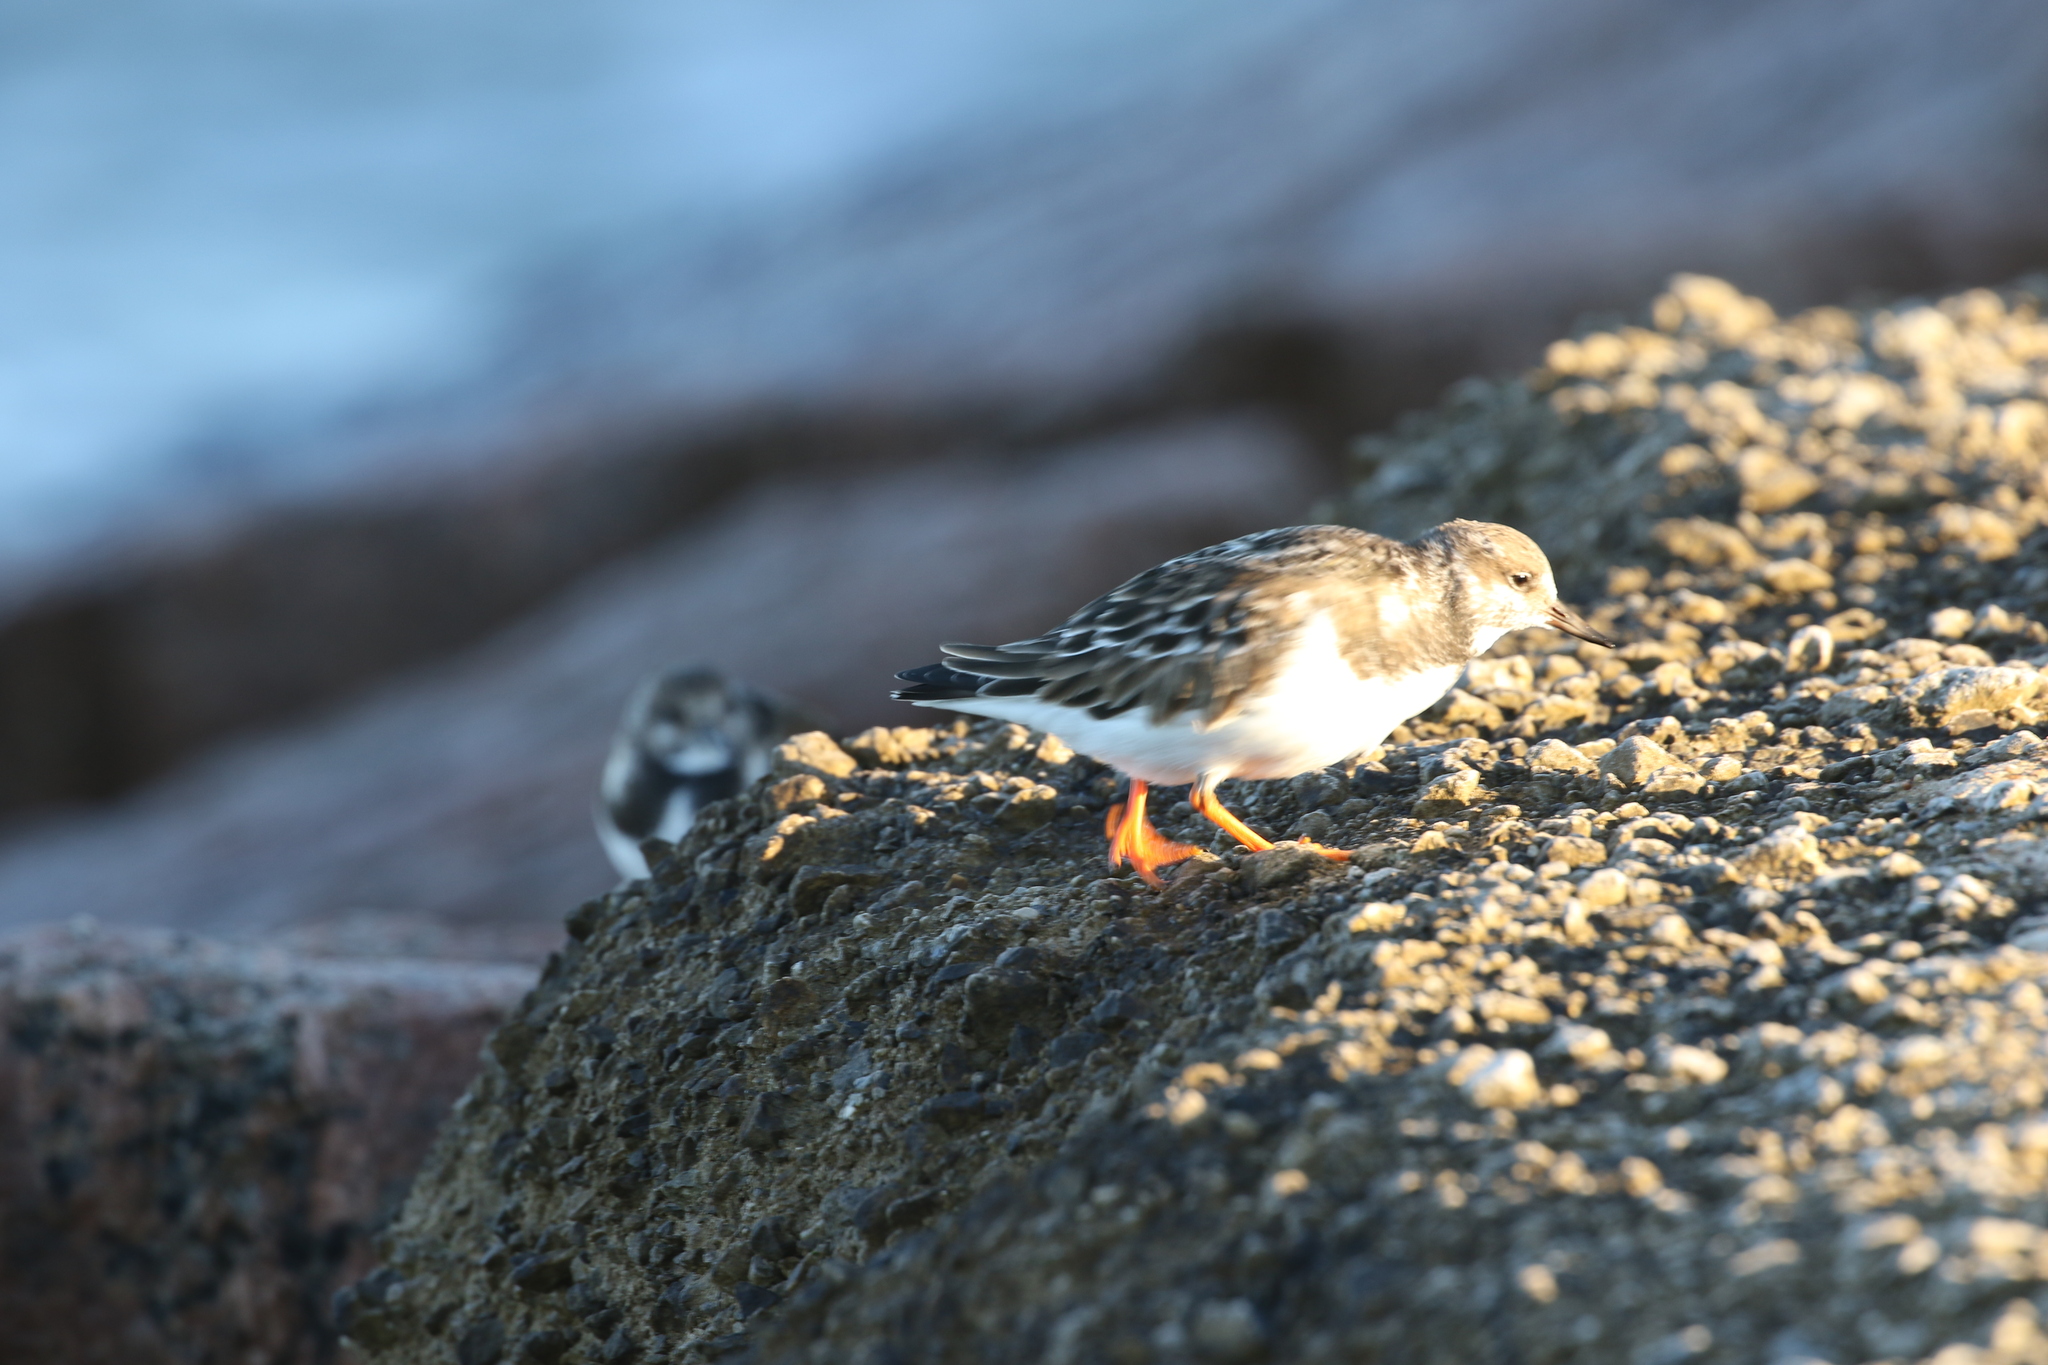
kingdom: Animalia
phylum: Chordata
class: Aves
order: Charadriiformes
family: Scolopacidae
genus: Arenaria
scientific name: Arenaria interpres
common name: Ruddy turnstone
